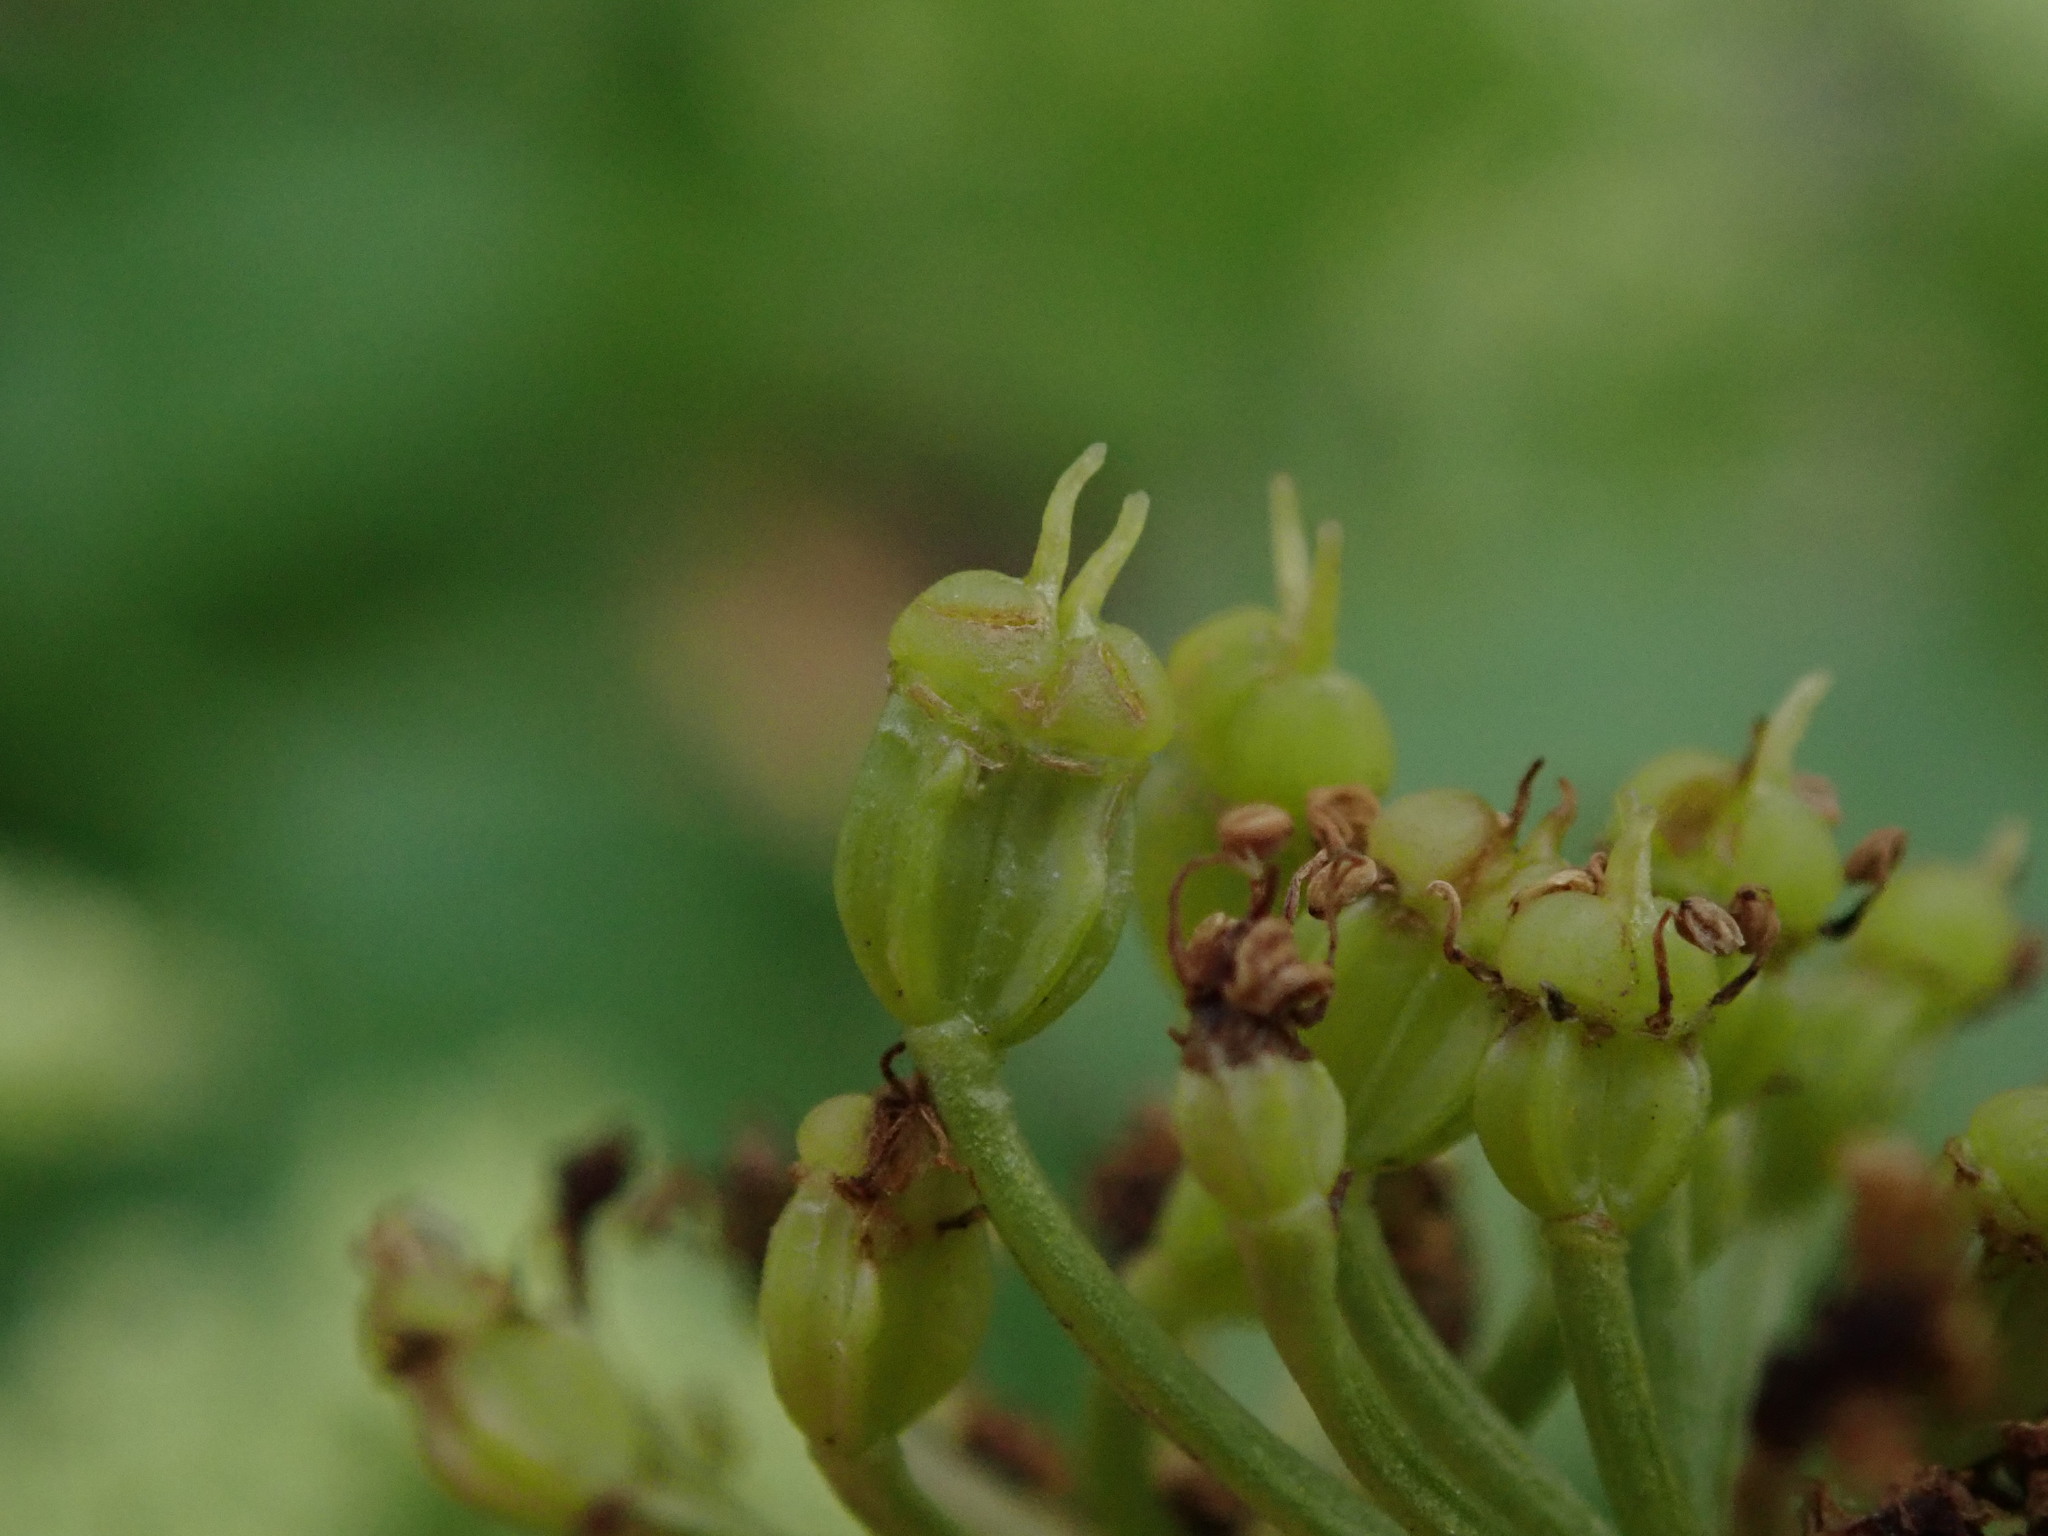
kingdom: Plantae
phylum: Tracheophyta
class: Magnoliopsida
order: Apiales
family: Apiaceae
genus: Smyrnium
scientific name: Smyrnium olusatrum
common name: Alexanders
